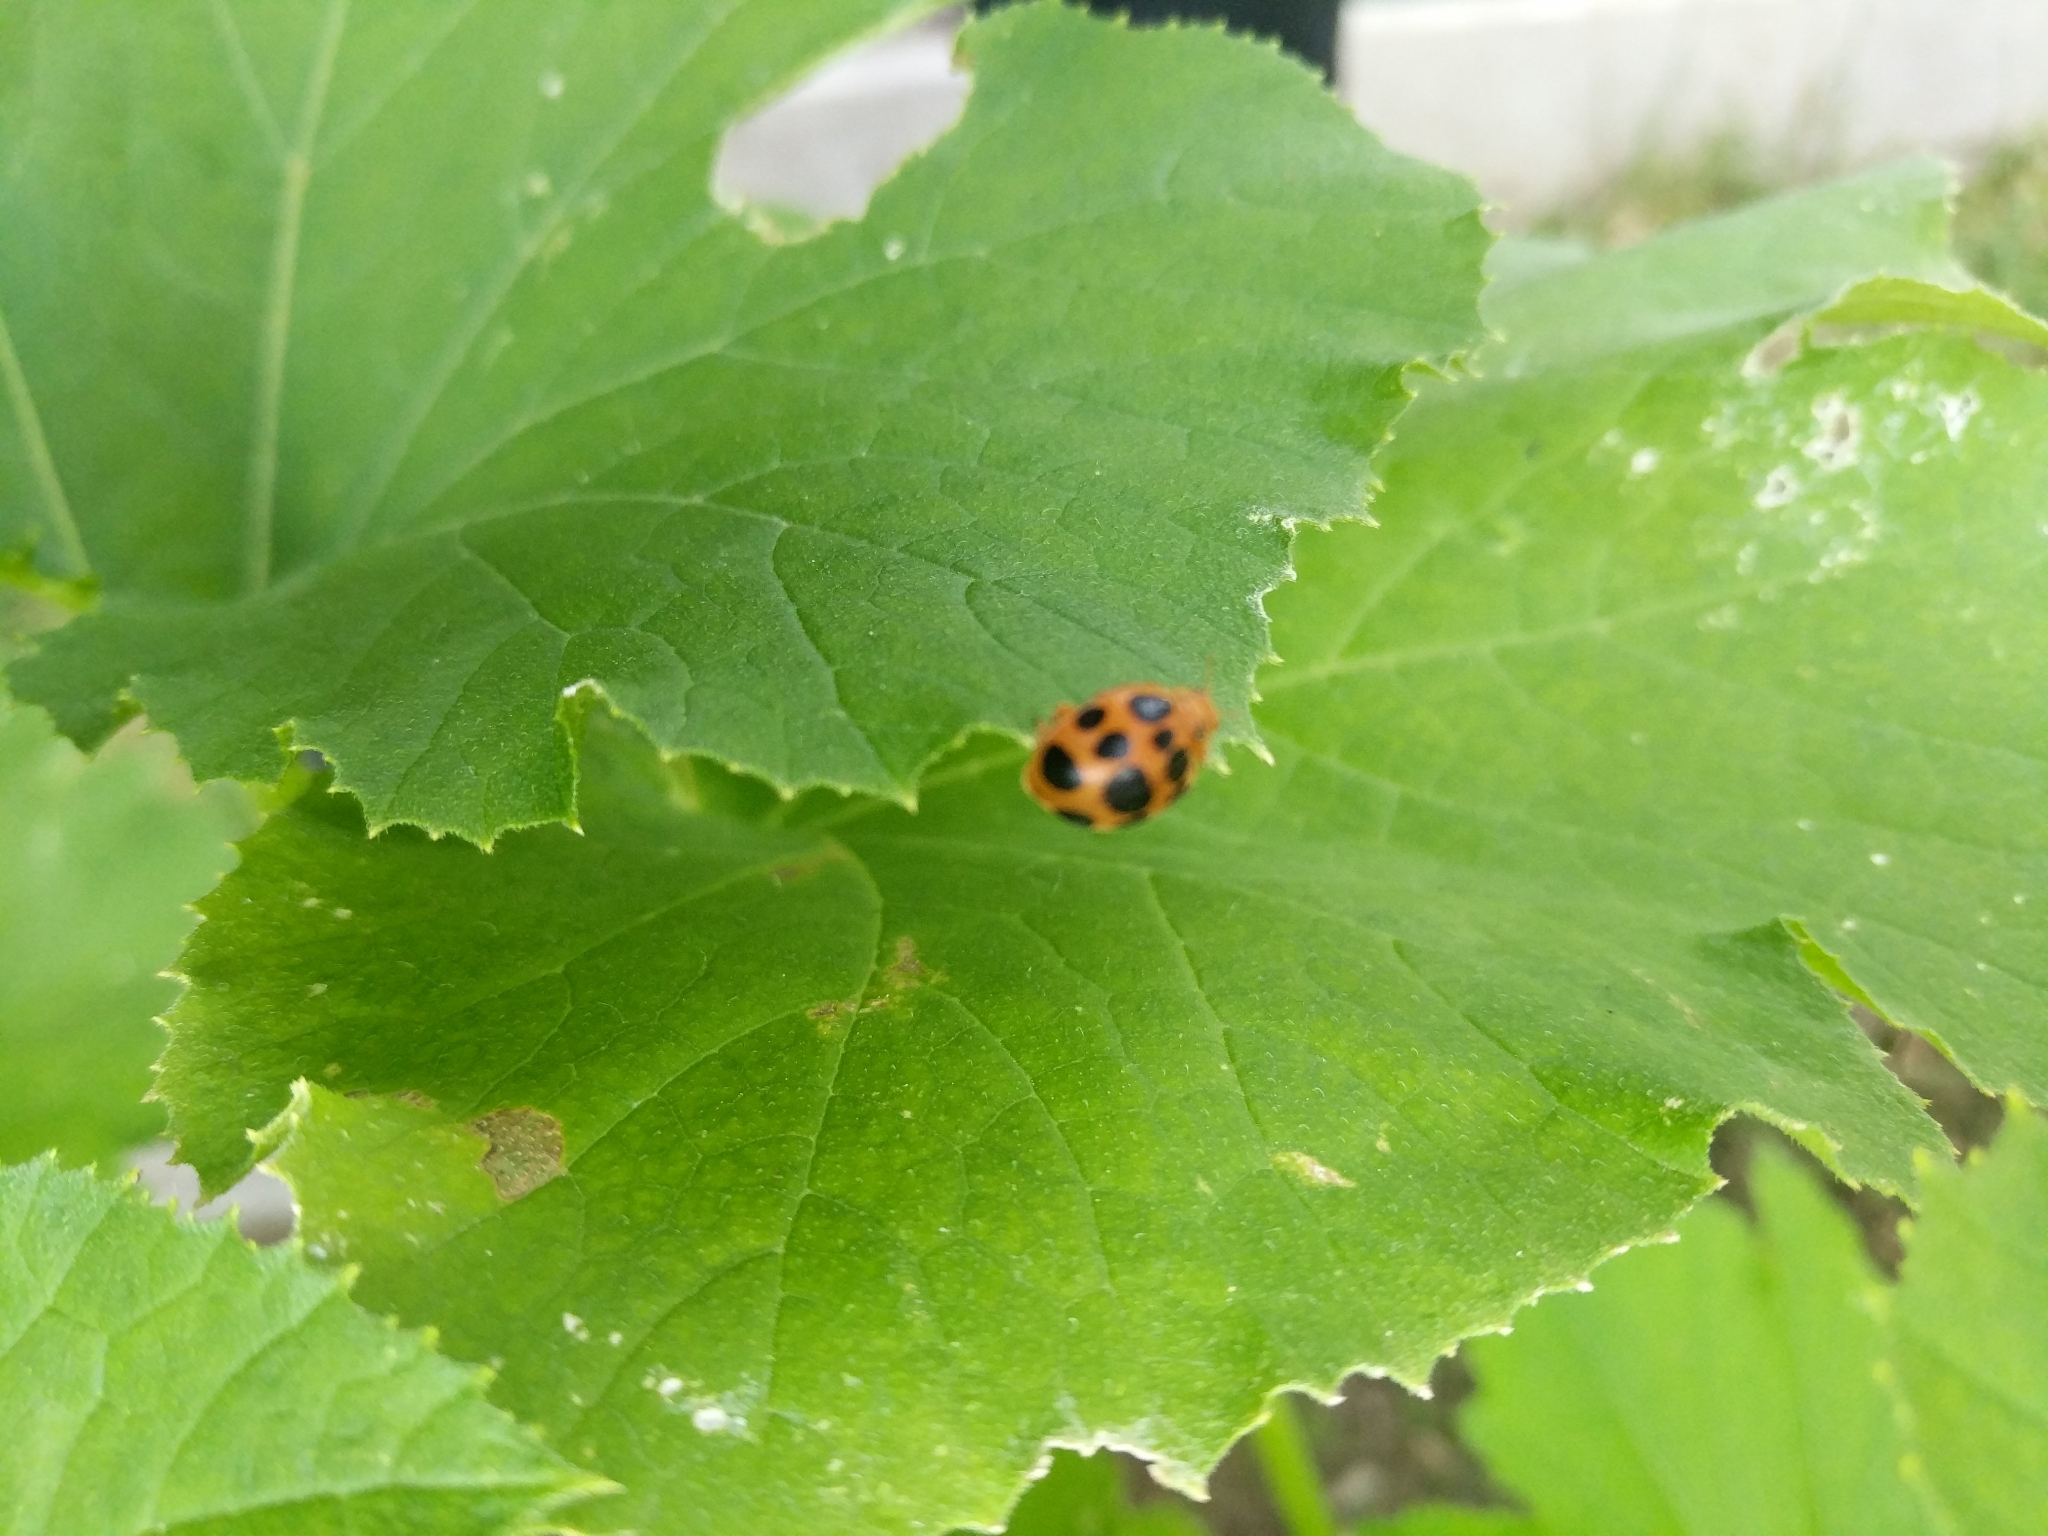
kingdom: Animalia
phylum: Arthropoda
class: Insecta
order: Coleoptera
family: Coccinellidae
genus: Epilachna
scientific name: Epilachna borealis
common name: Squash beetle
